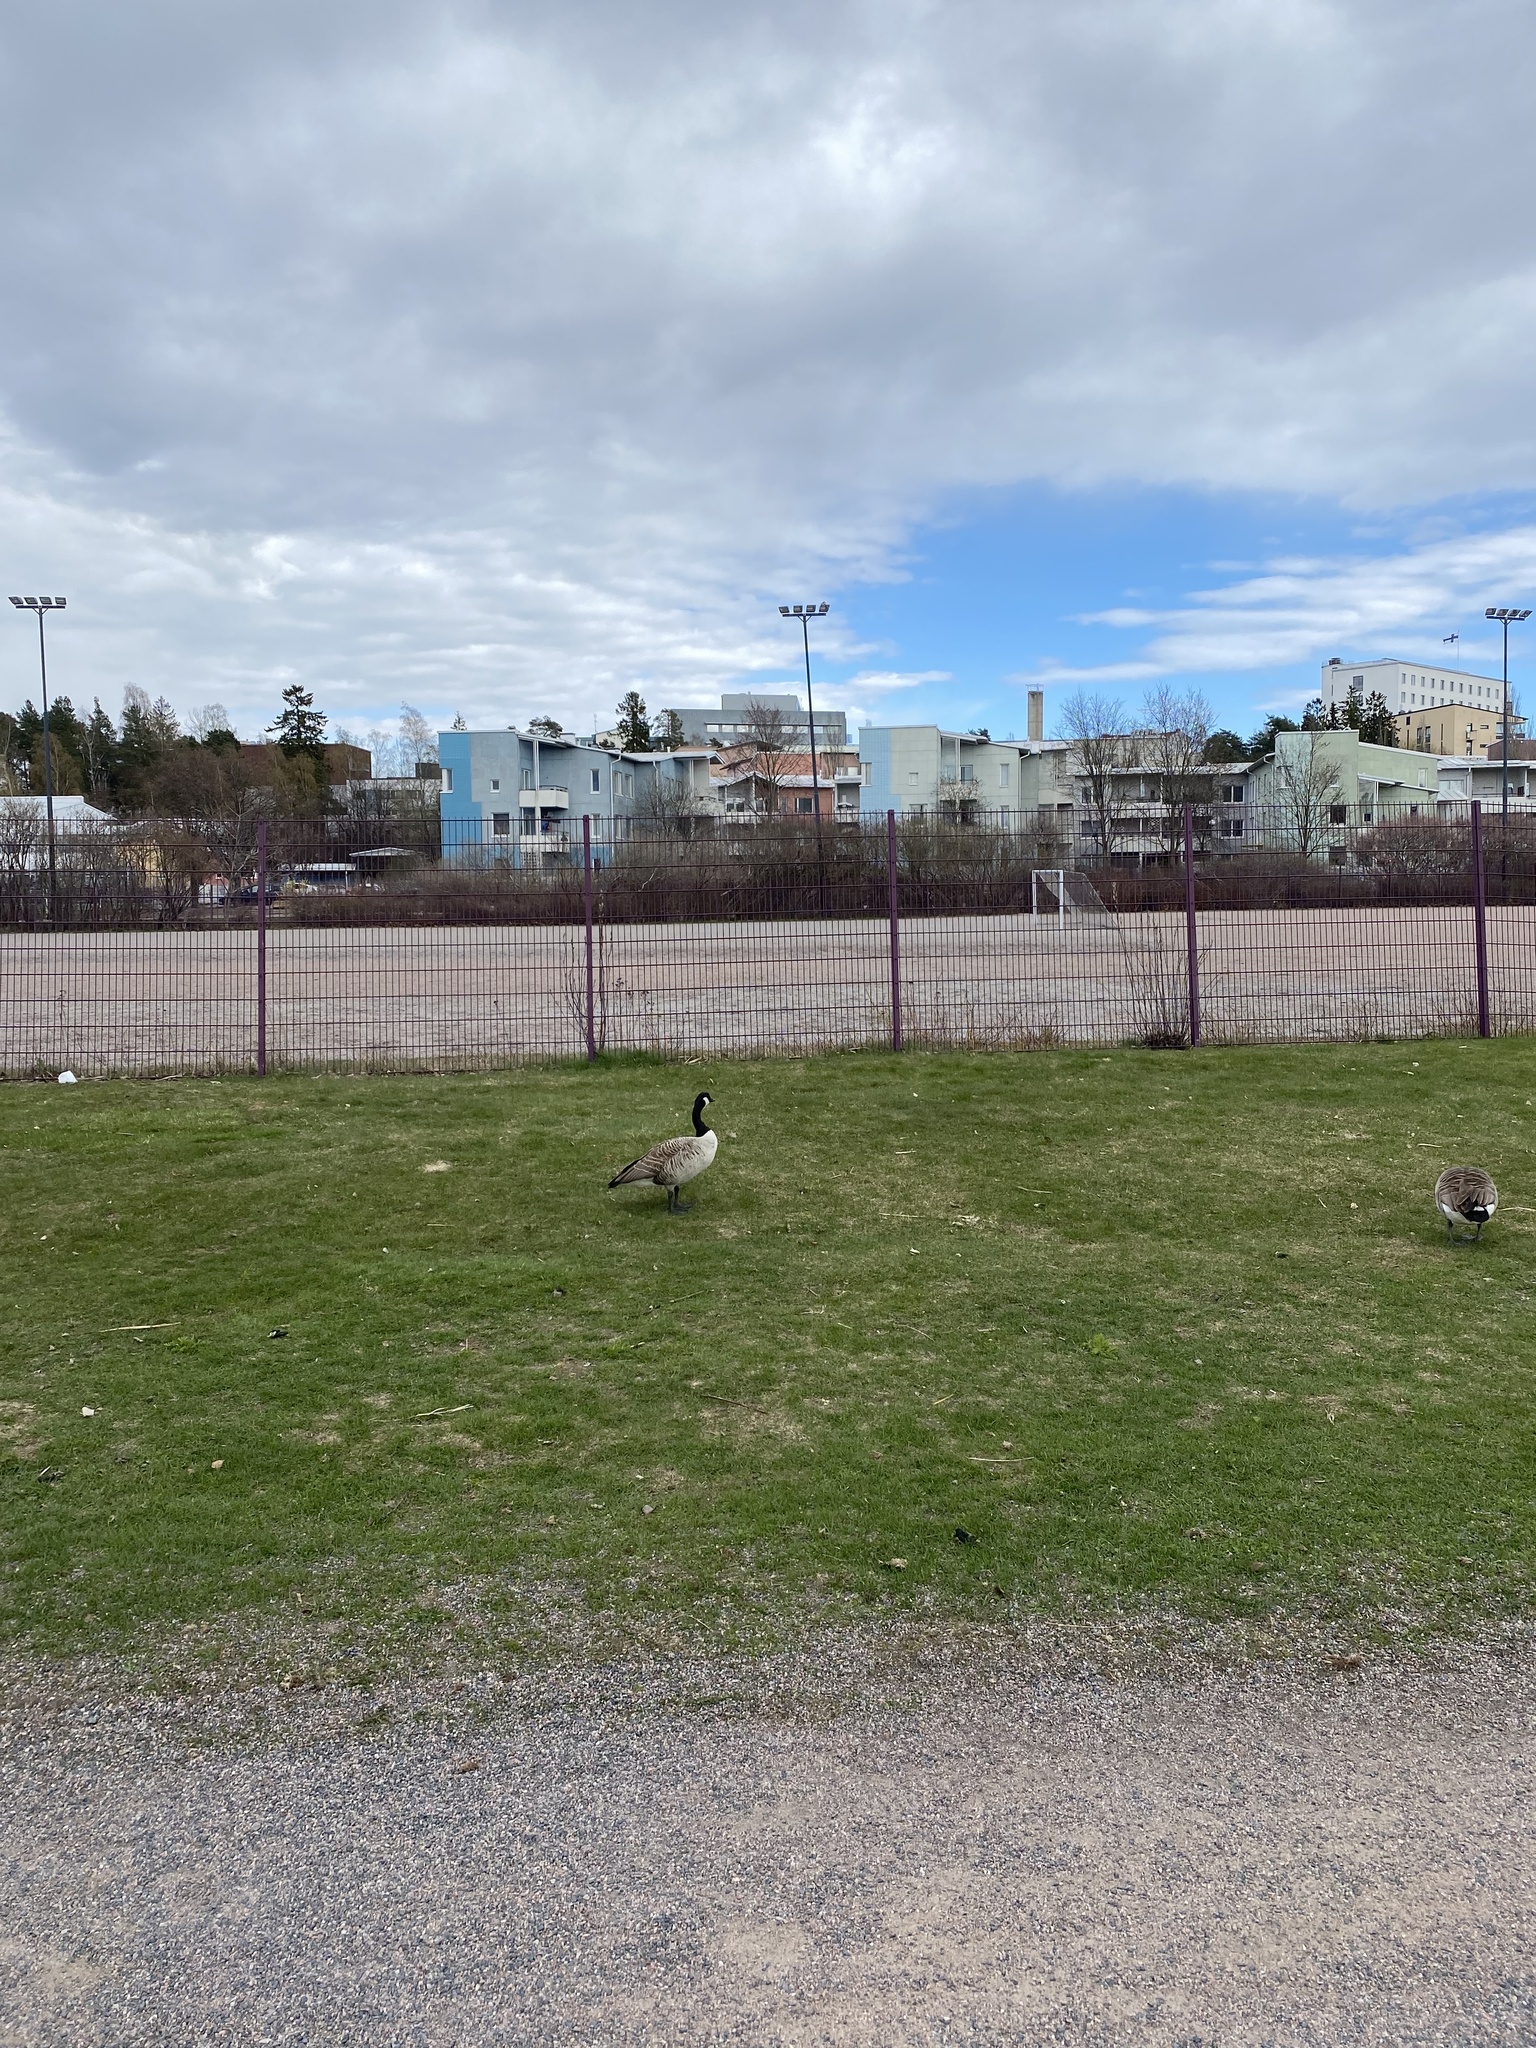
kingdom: Animalia
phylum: Chordata
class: Aves
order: Anseriformes
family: Anatidae
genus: Branta
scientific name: Branta canadensis
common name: Canada goose
